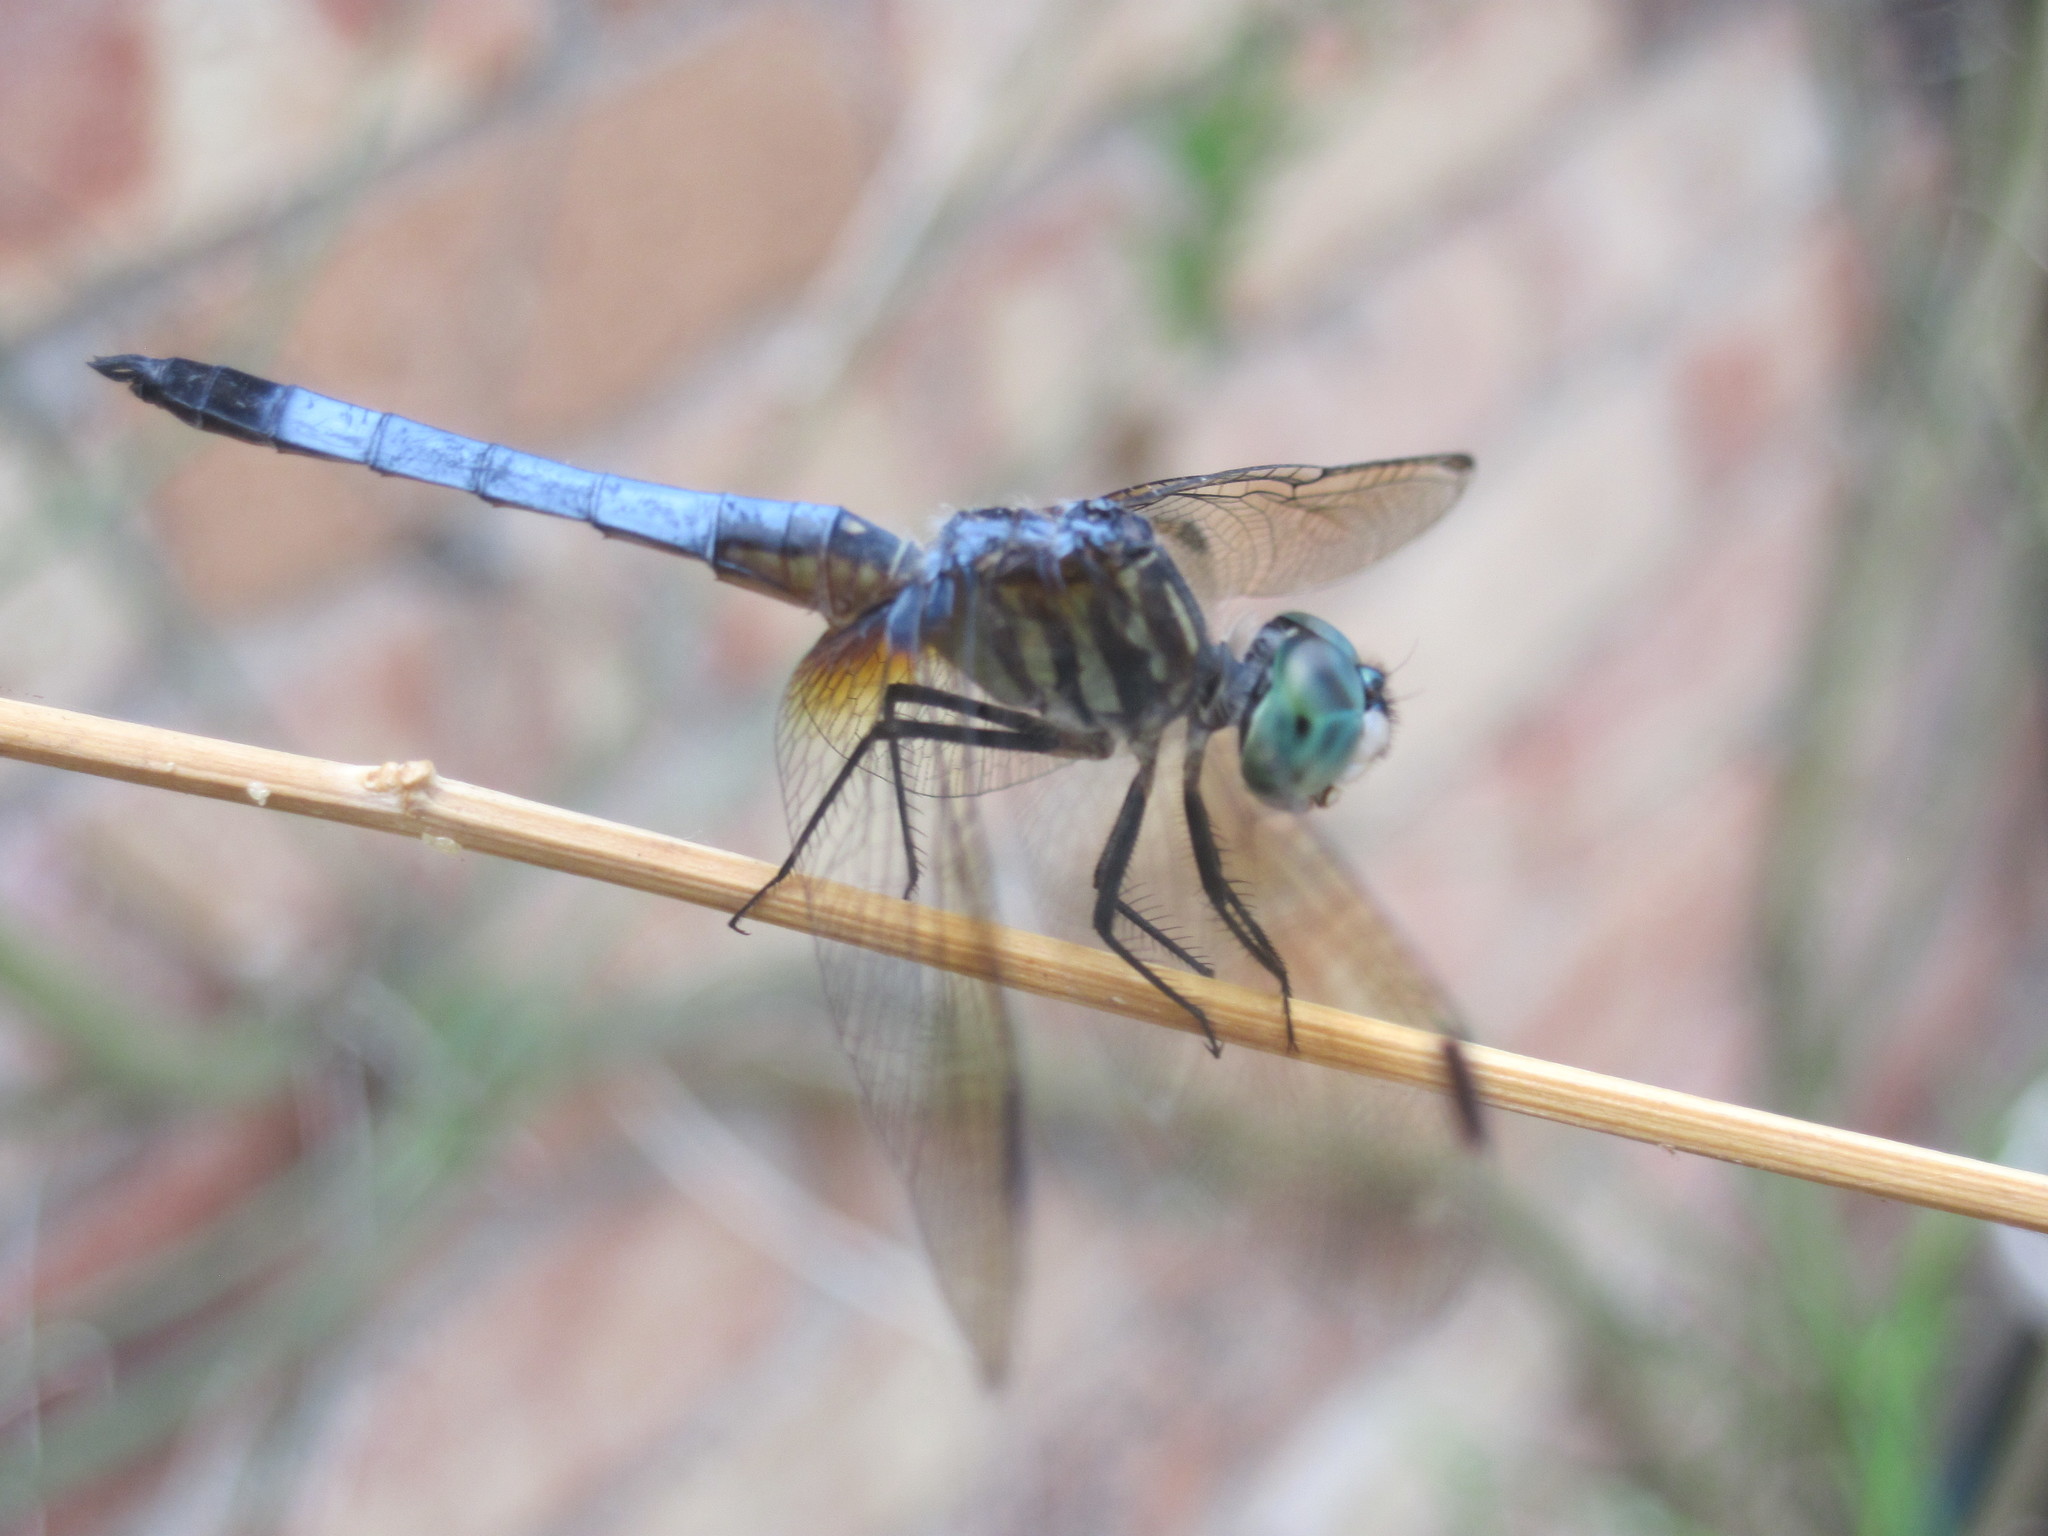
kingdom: Animalia
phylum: Arthropoda
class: Insecta
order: Odonata
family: Libellulidae
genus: Pachydiplax
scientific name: Pachydiplax longipennis
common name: Blue dasher
